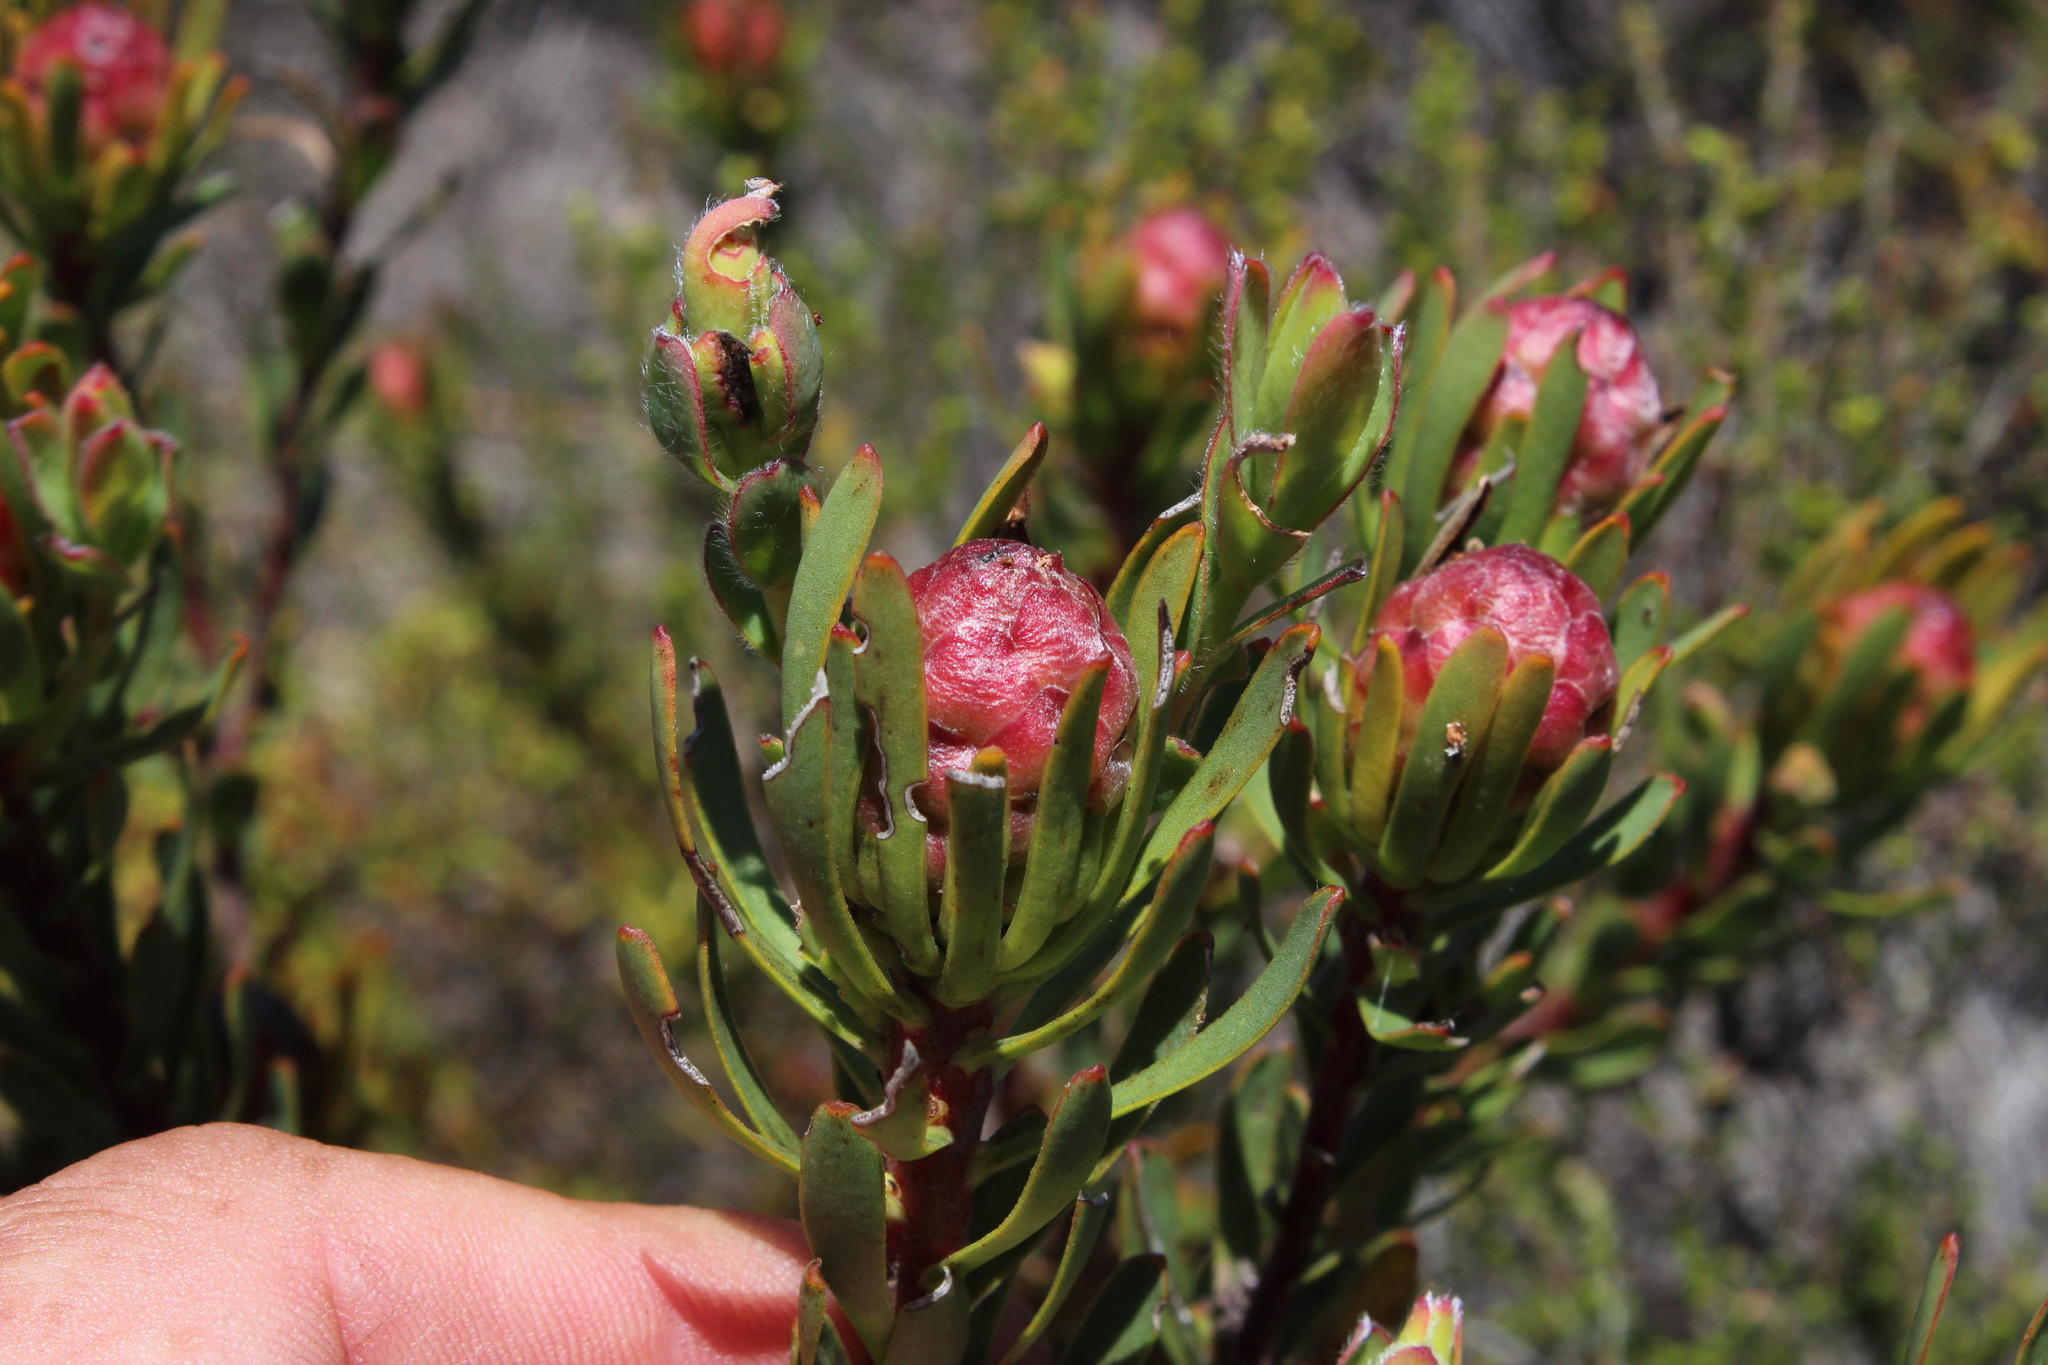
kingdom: Plantae
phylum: Tracheophyta
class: Magnoliopsida
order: Proteales
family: Proteaceae
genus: Leucadendron
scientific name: Leucadendron modestum
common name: Rough-leaf conebush
